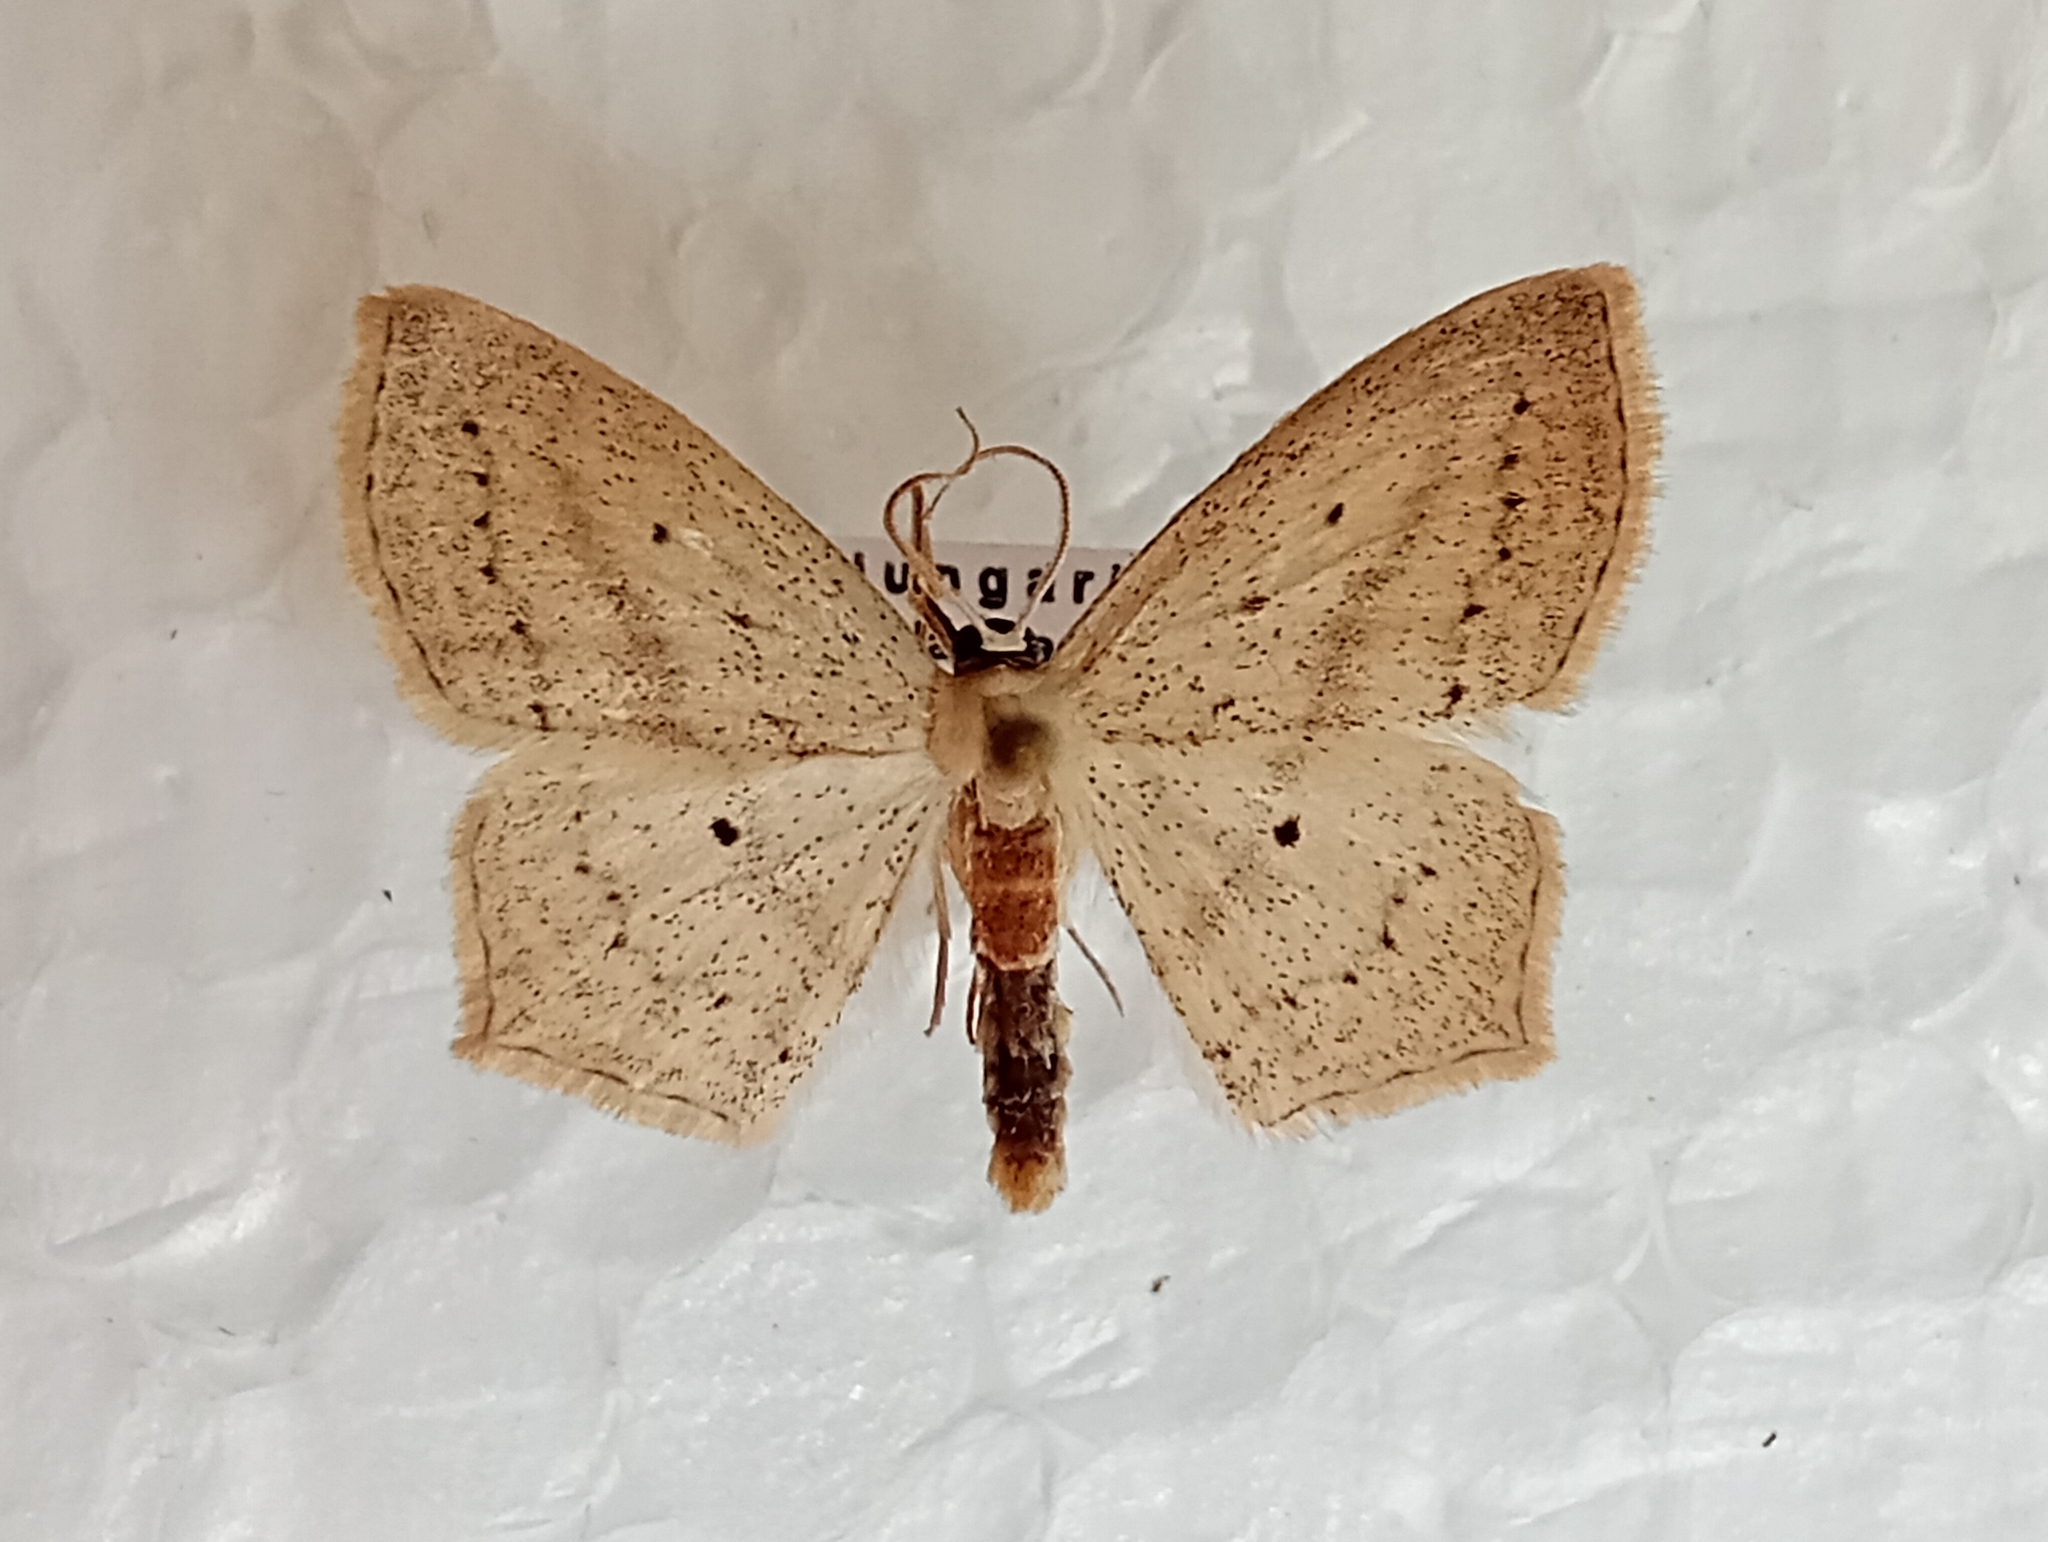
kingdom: Animalia
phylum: Arthropoda
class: Insecta
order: Lepidoptera
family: Geometridae
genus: Scopula
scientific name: Scopula flaccidaria
